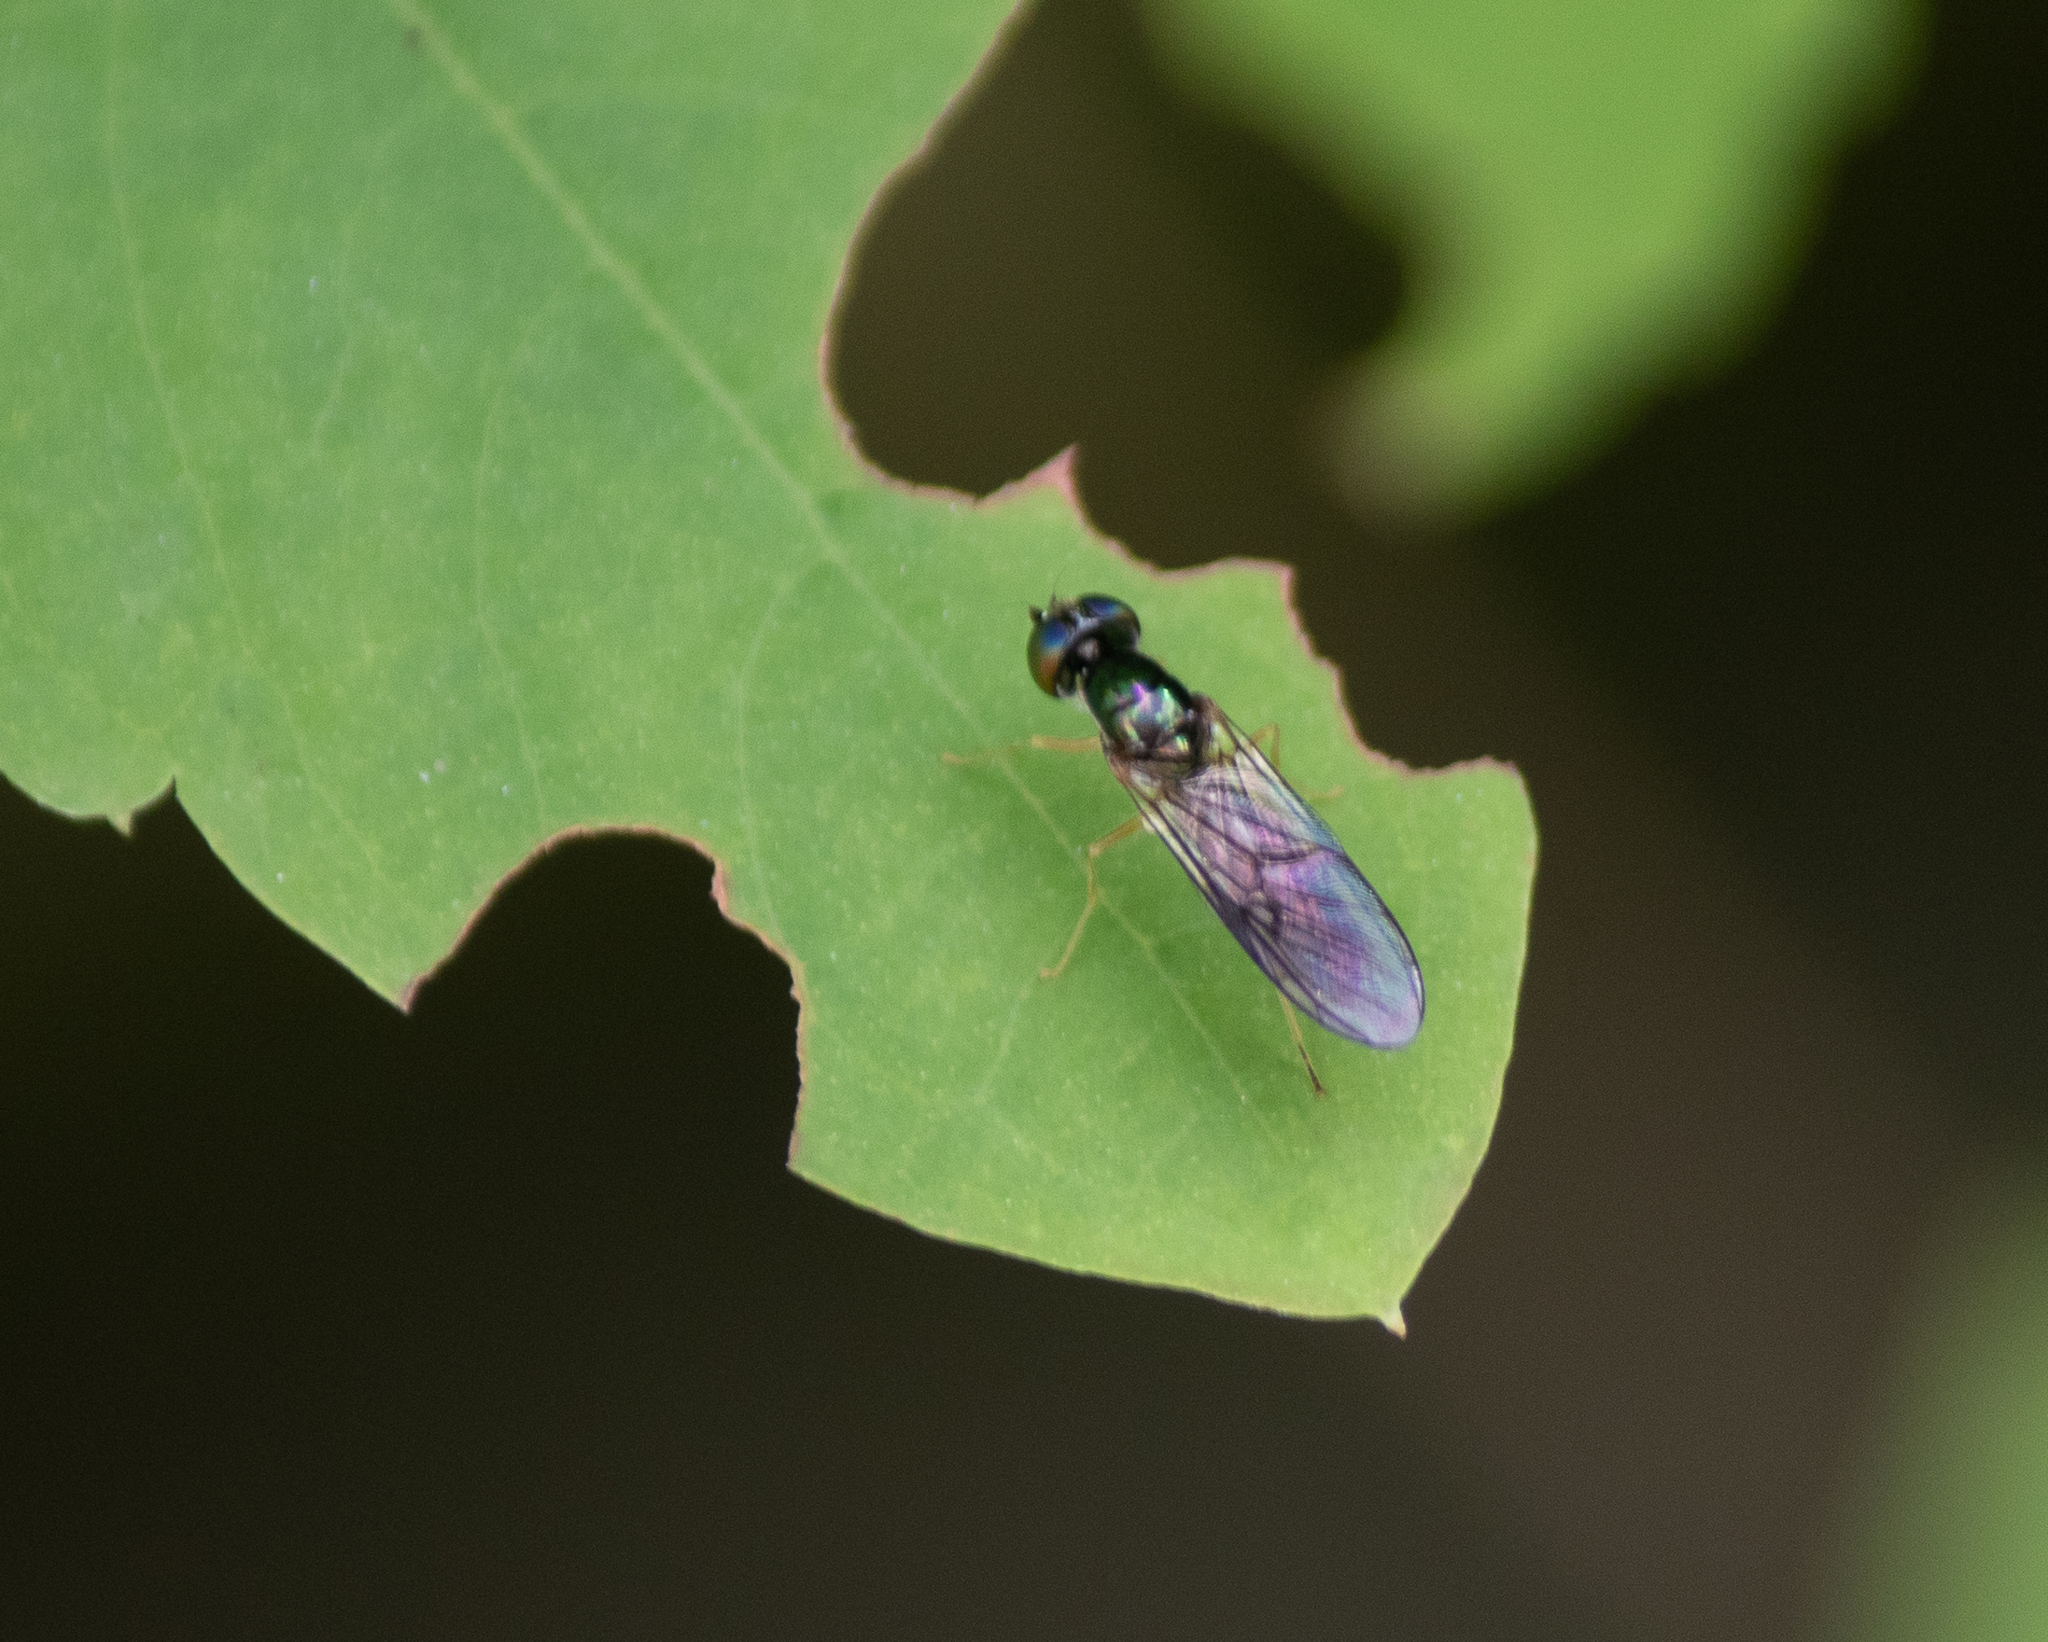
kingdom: Animalia
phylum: Arthropoda
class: Insecta
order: Diptera
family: Stratiomyidae
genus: Sargus
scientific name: Sargus decorus
